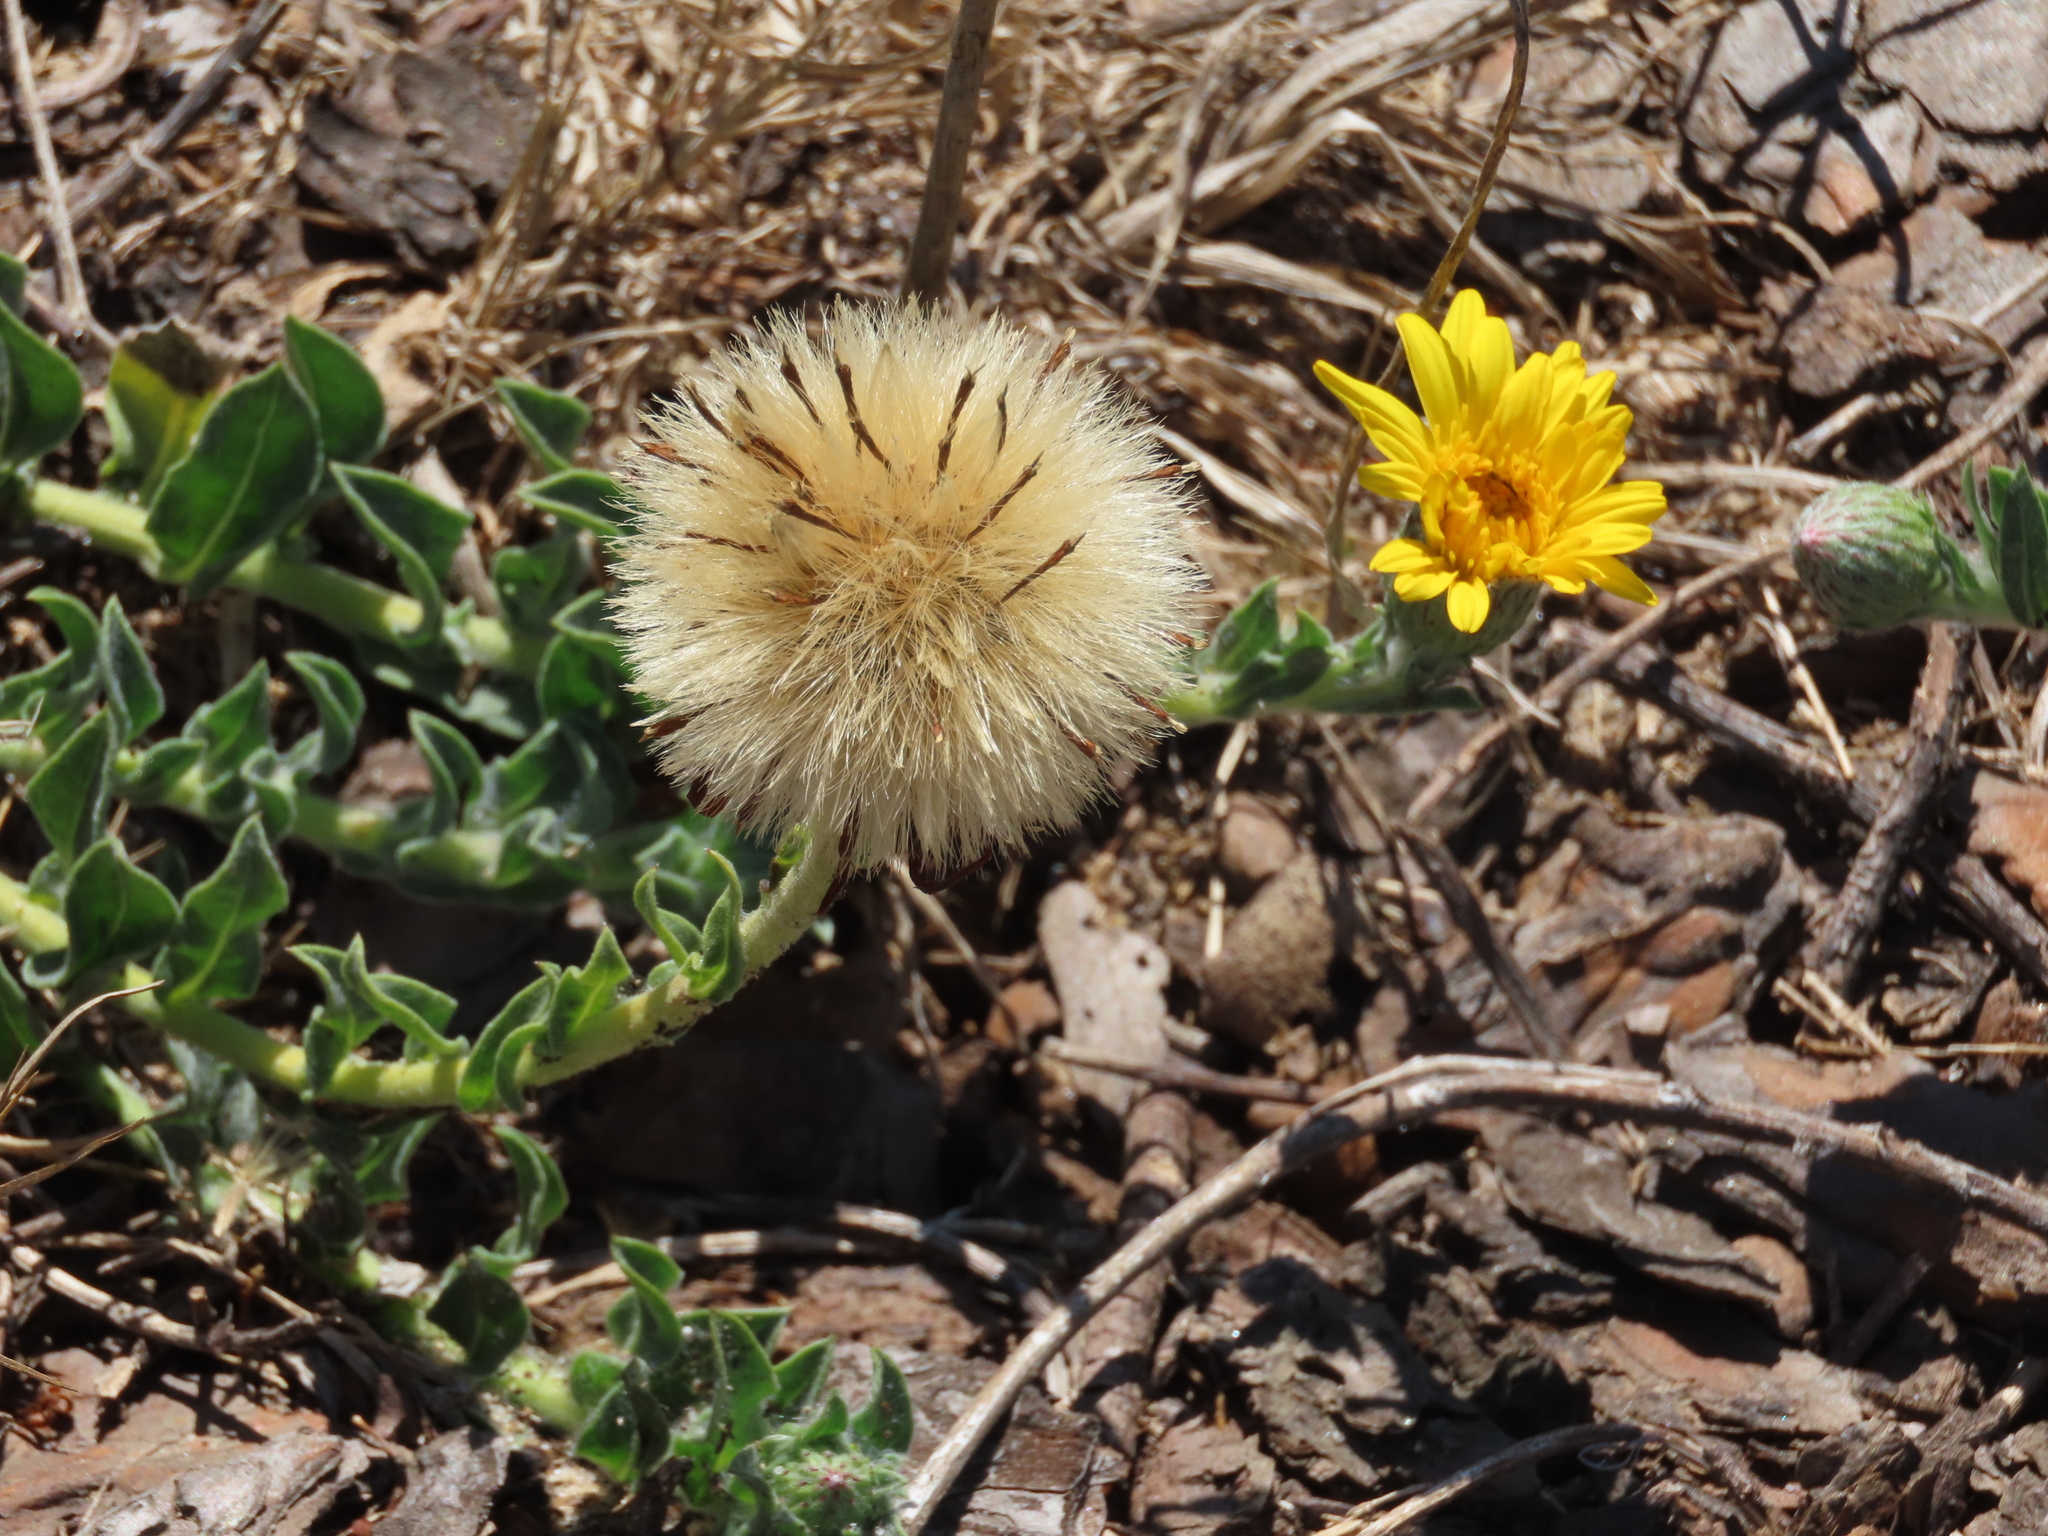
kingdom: Plantae
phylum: Tracheophyta
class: Magnoliopsida
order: Asterales
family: Asteraceae
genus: Noticastrum
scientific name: Noticastrum acuminatum
